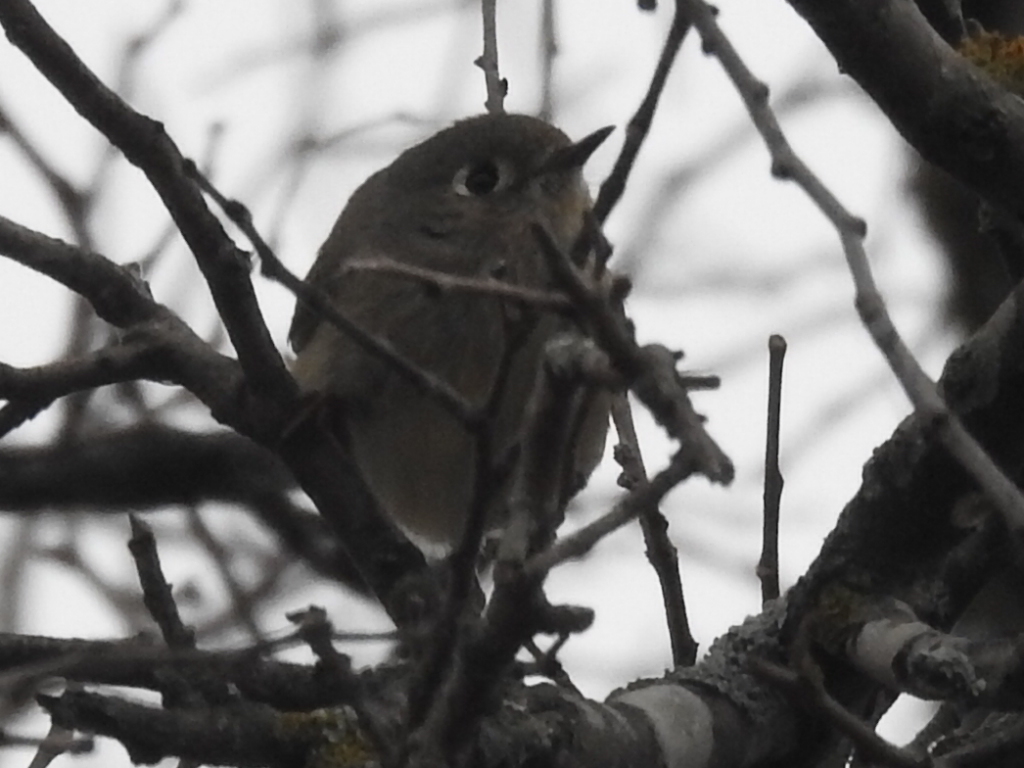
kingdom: Animalia
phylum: Chordata
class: Aves
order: Passeriformes
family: Regulidae
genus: Regulus
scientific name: Regulus calendula
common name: Ruby-crowned kinglet
